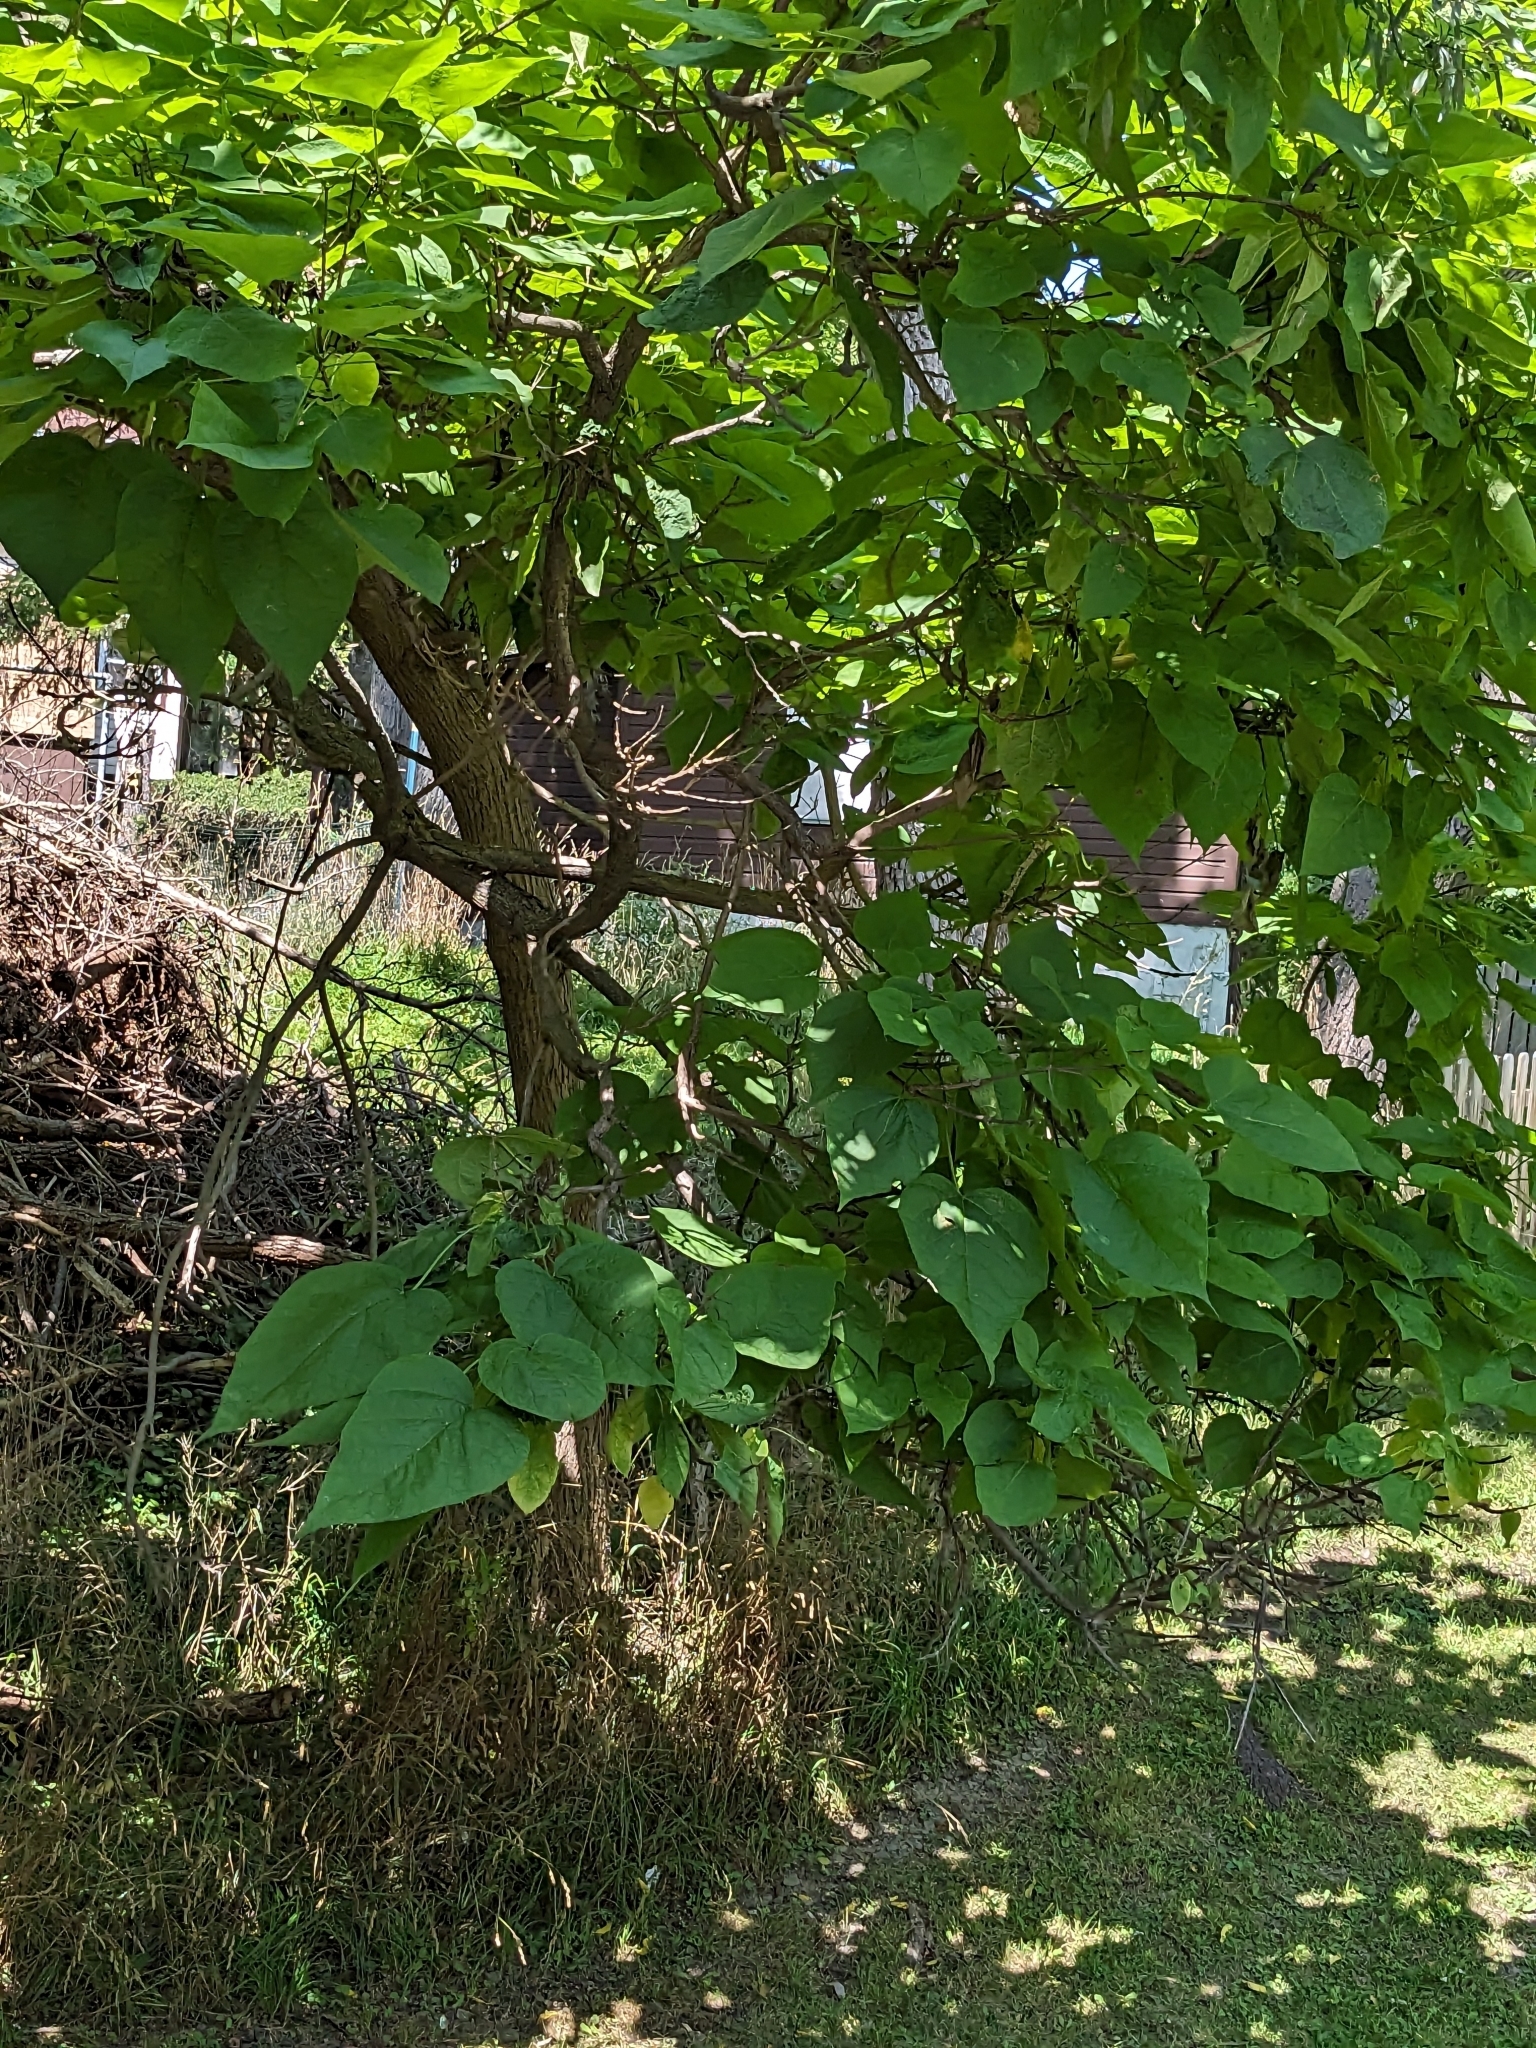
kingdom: Plantae
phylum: Tracheophyta
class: Magnoliopsida
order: Lamiales
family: Bignoniaceae
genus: Catalpa
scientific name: Catalpa speciosa
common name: Northern catalpa
